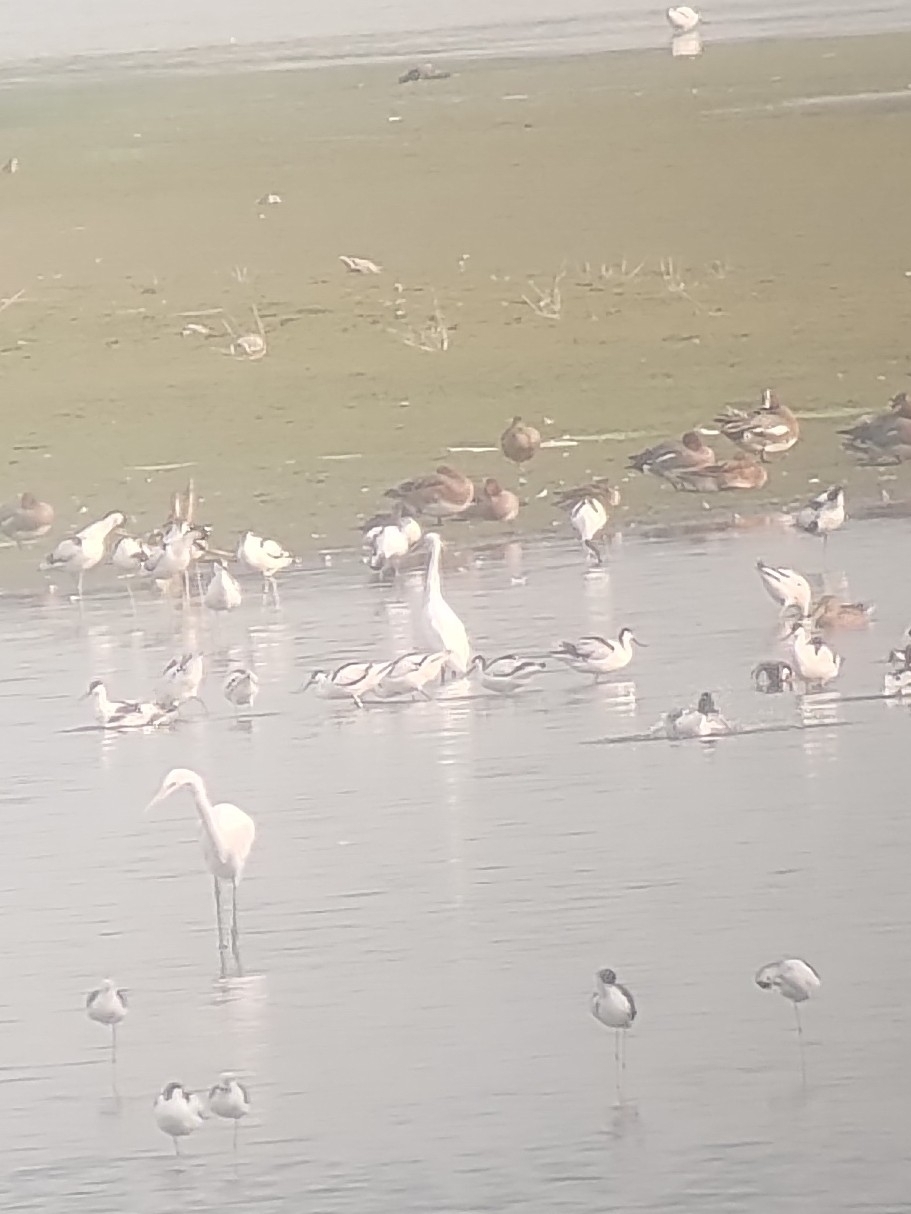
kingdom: Animalia
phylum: Chordata
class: Aves
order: Charadriiformes
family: Recurvirostridae
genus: Recurvirostra
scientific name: Recurvirostra avosetta
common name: Pied avocet
